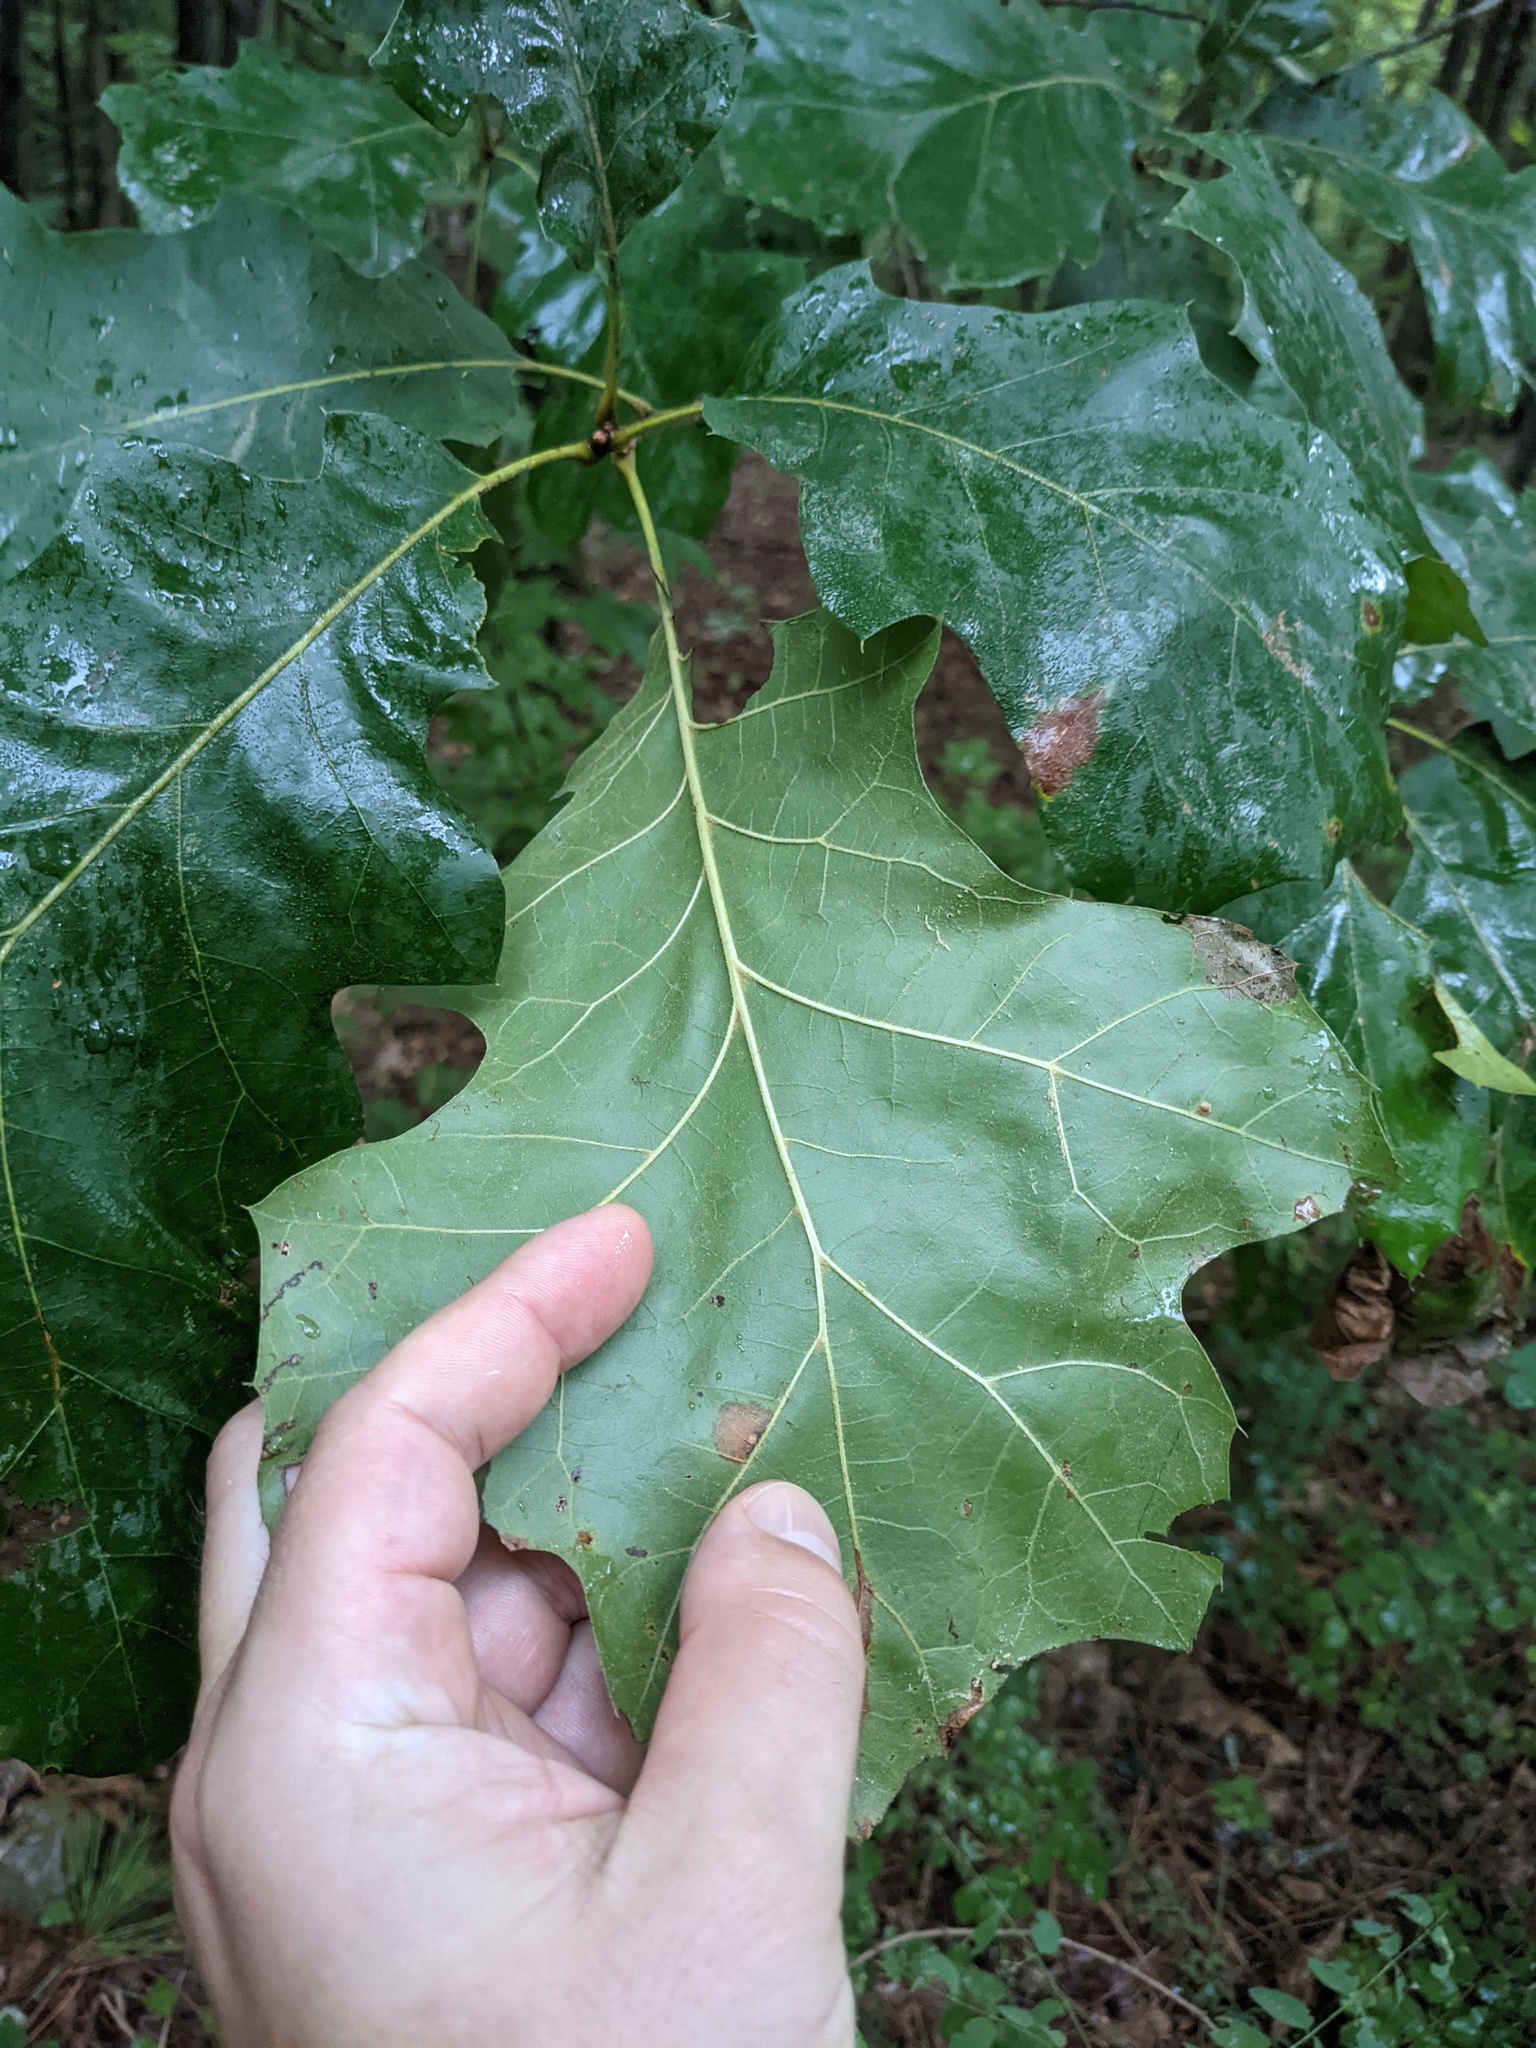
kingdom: Plantae
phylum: Tracheophyta
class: Magnoliopsida
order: Fagales
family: Fagaceae
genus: Quercus
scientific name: Quercus velutina
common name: Black oak
